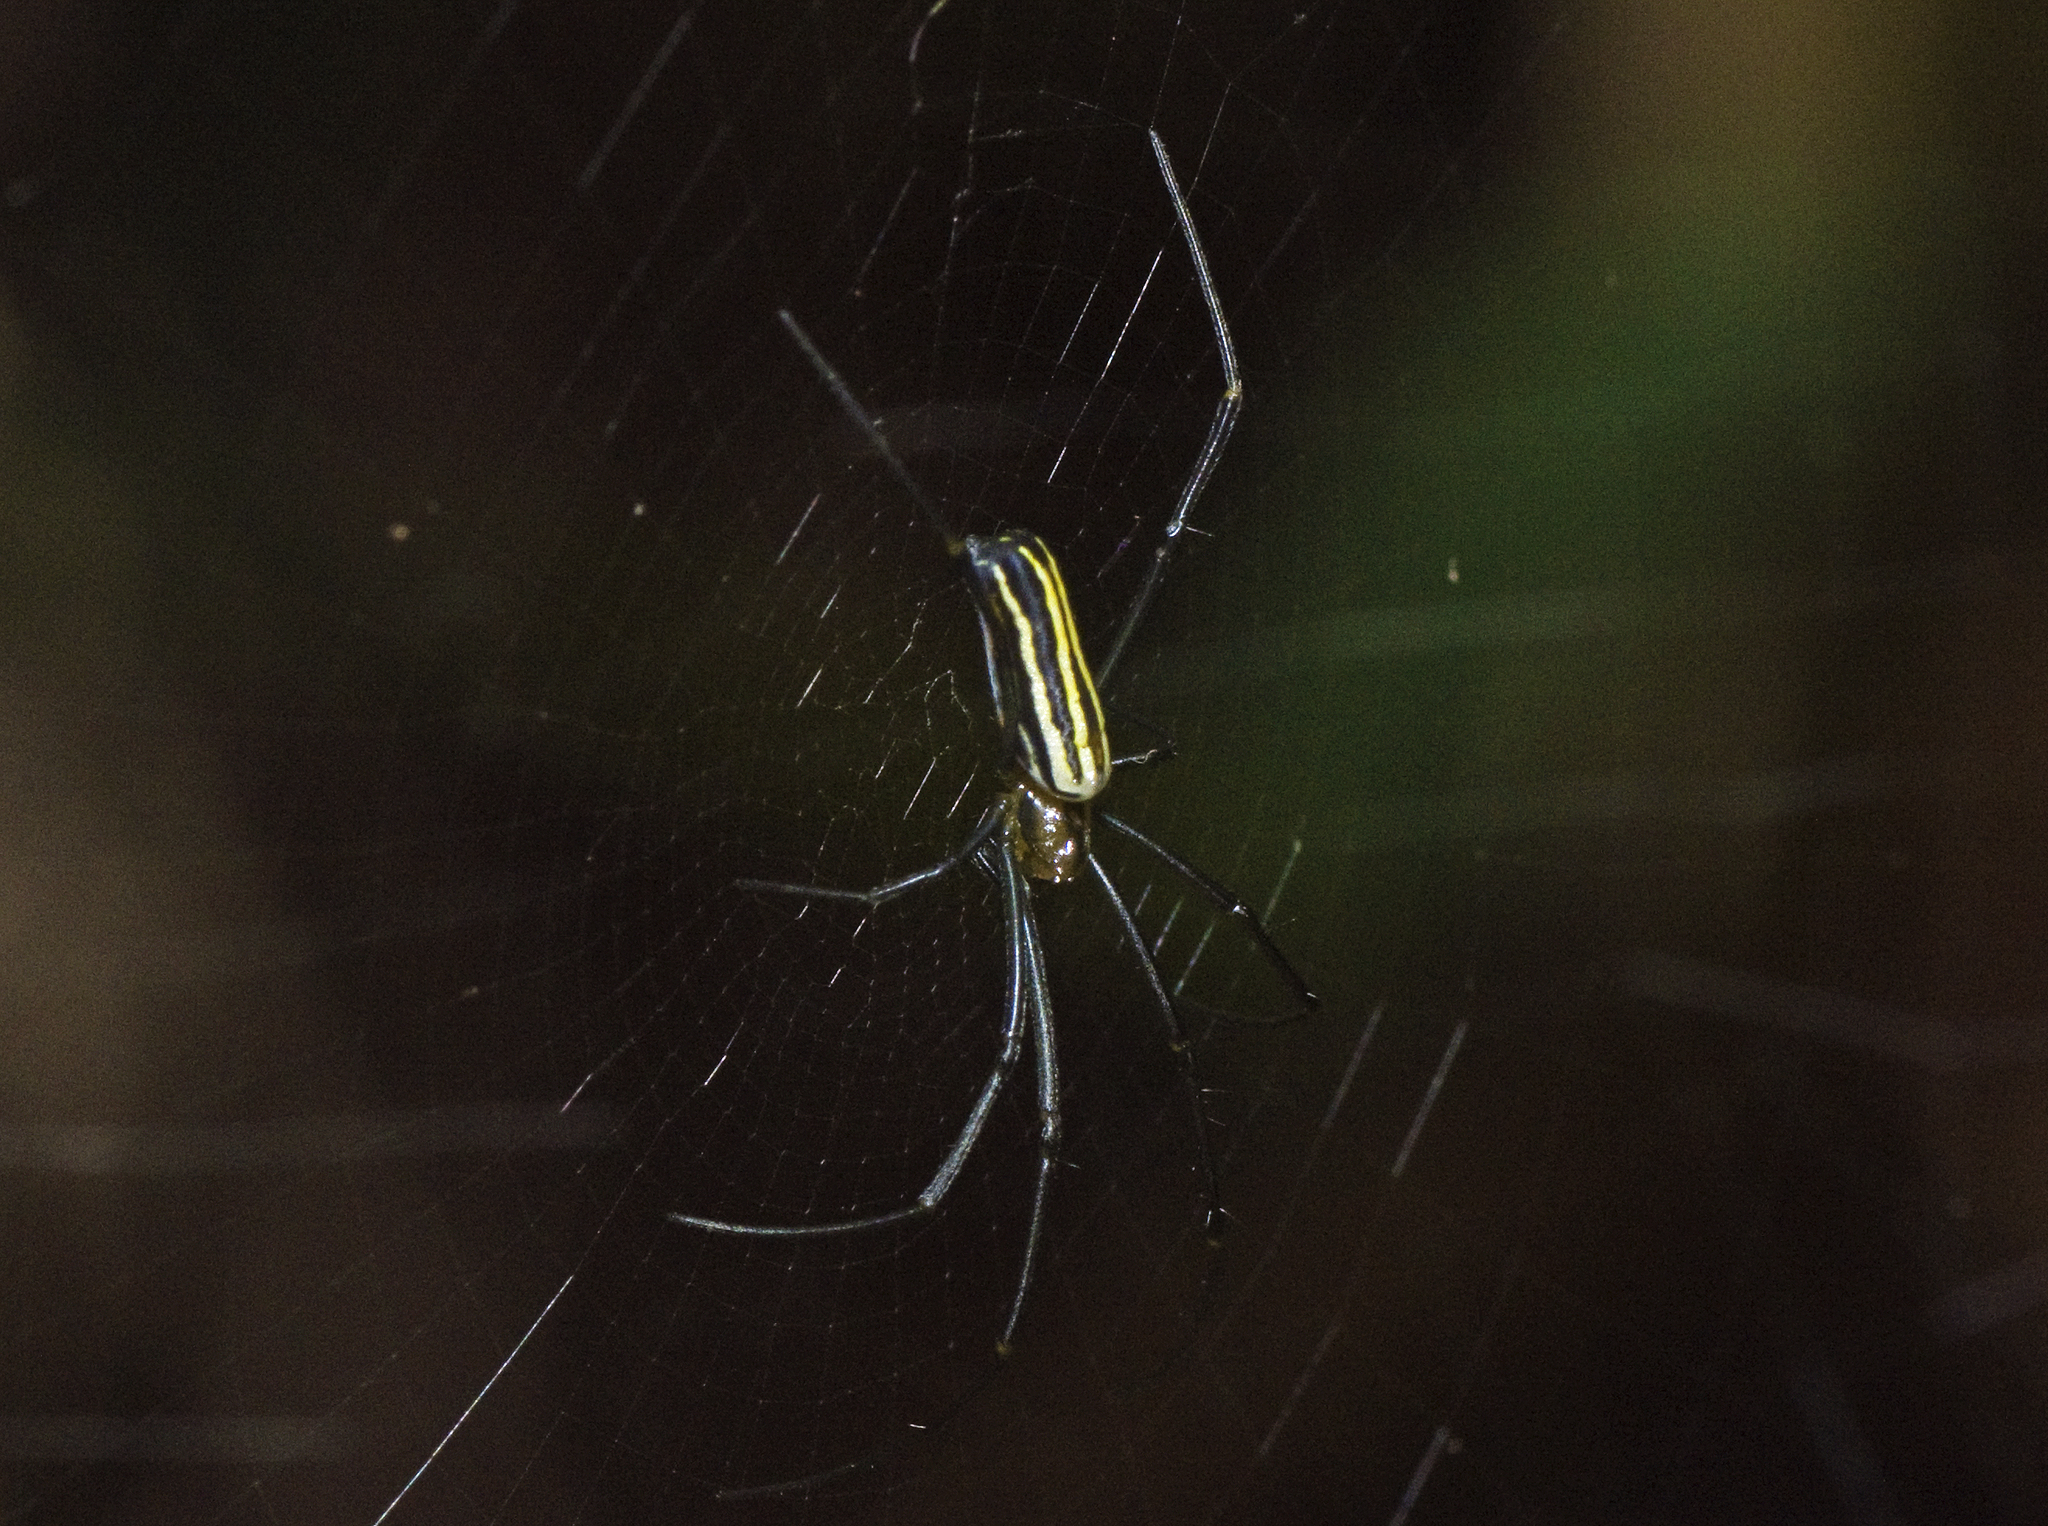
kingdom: Animalia
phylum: Arthropoda
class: Arachnida
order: Araneae
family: Araneidae
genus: Nephila
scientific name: Nephila pilipes
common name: Giant golden orb weaver
